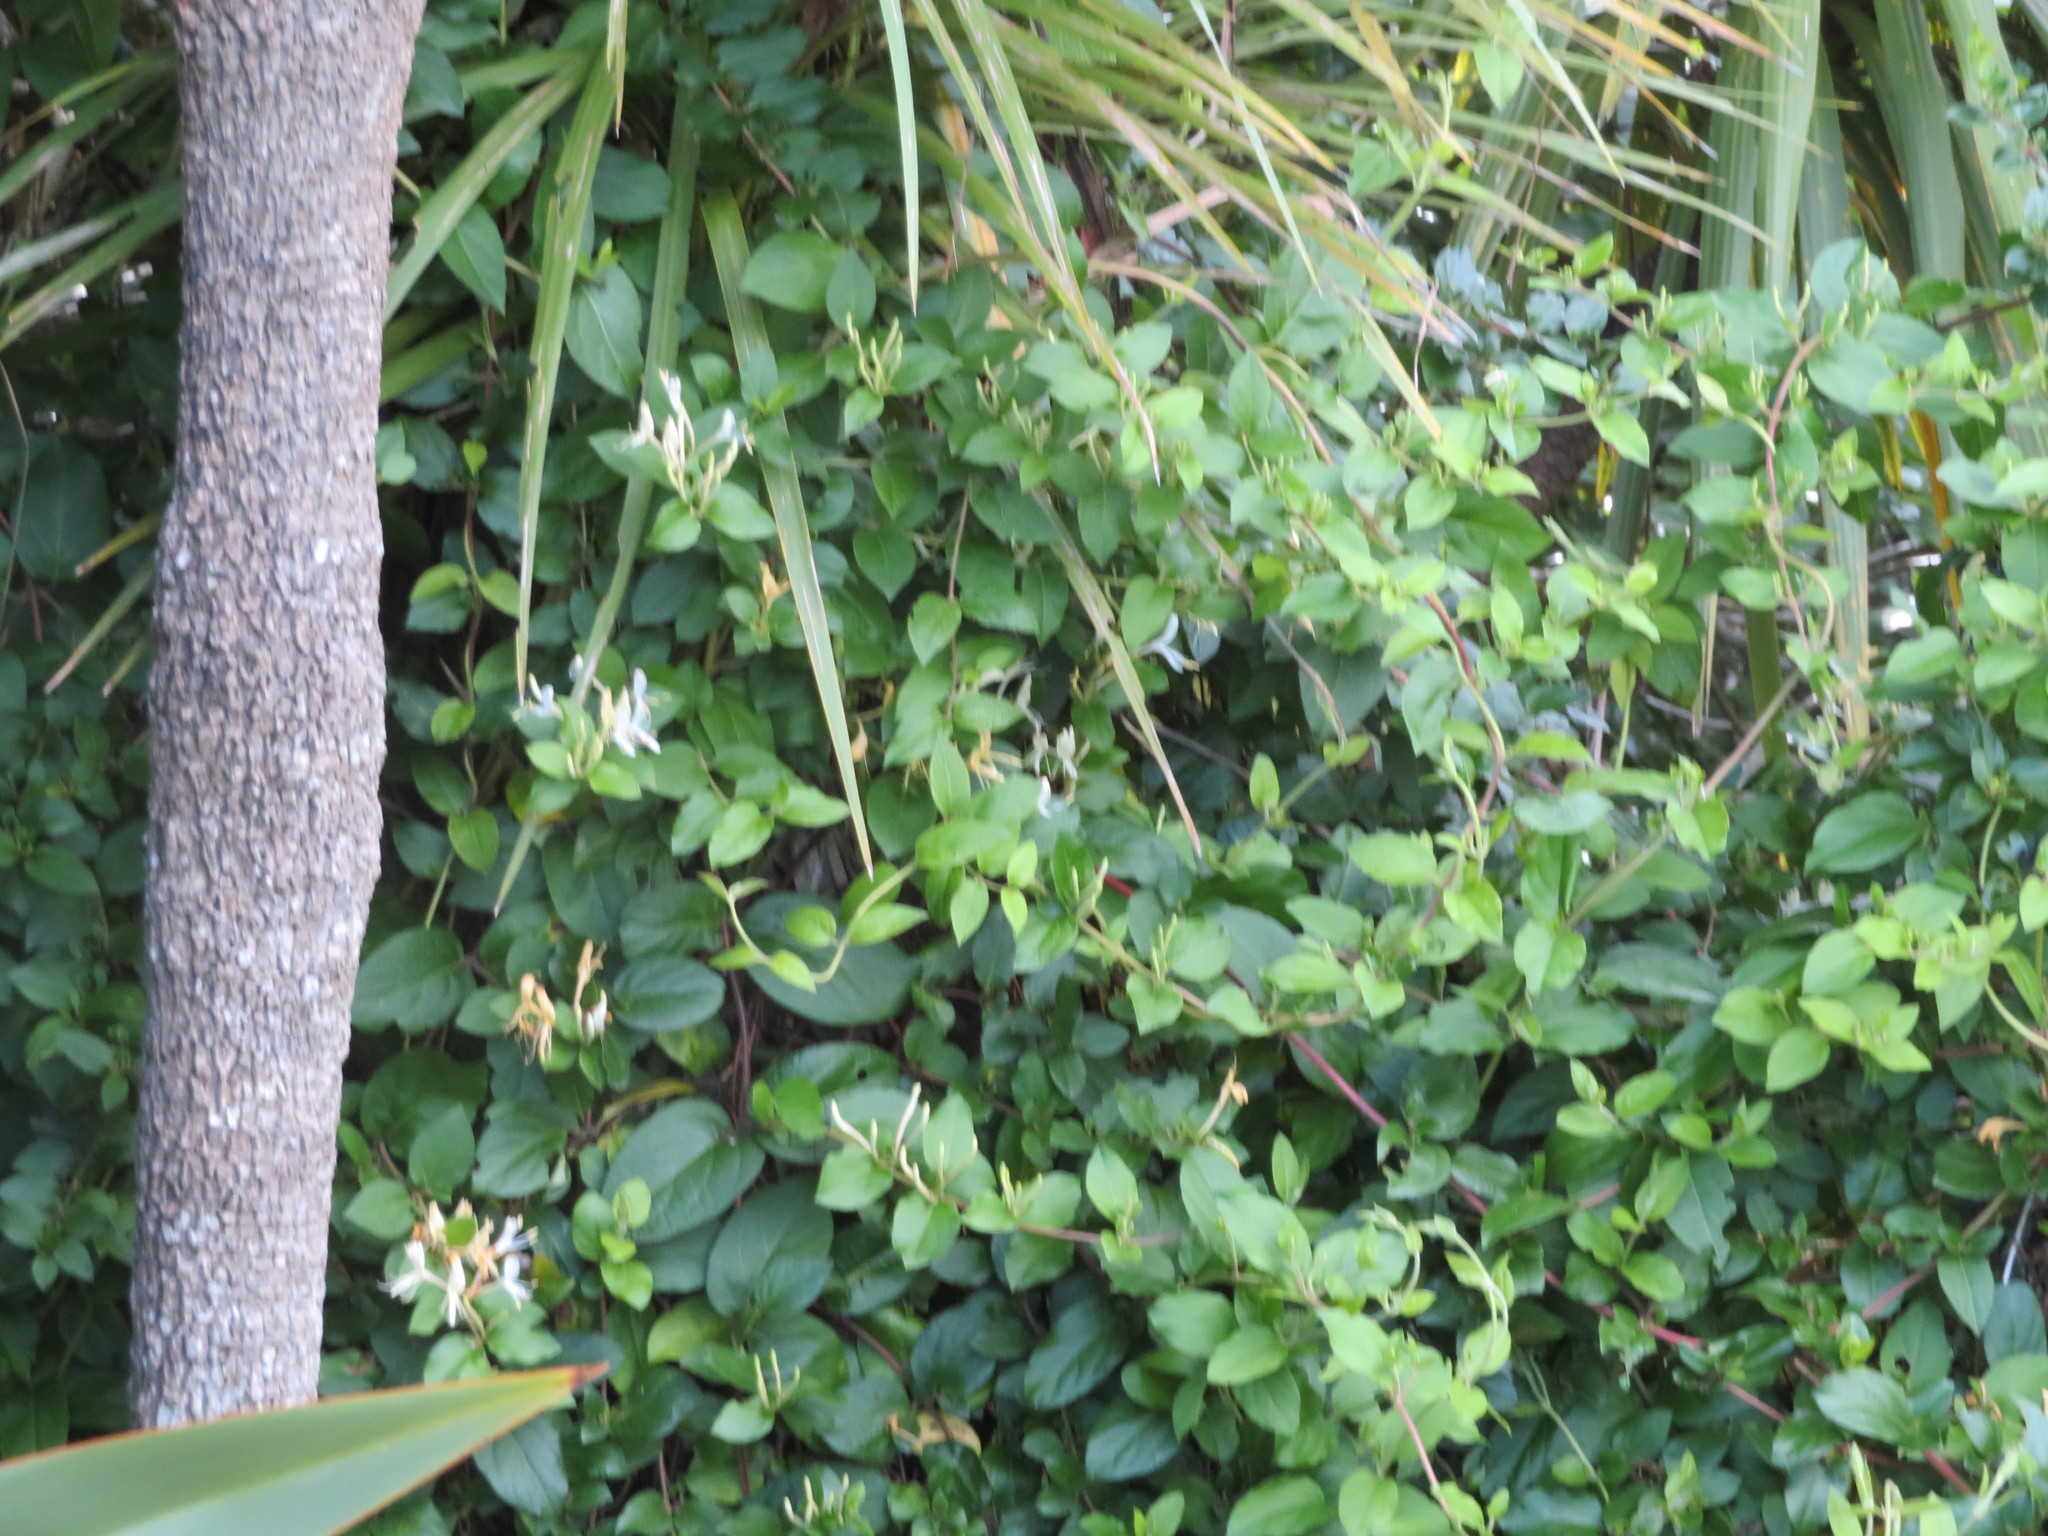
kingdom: Plantae
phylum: Tracheophyta
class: Magnoliopsida
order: Dipsacales
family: Caprifoliaceae
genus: Lonicera
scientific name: Lonicera japonica
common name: Japanese honeysuckle
